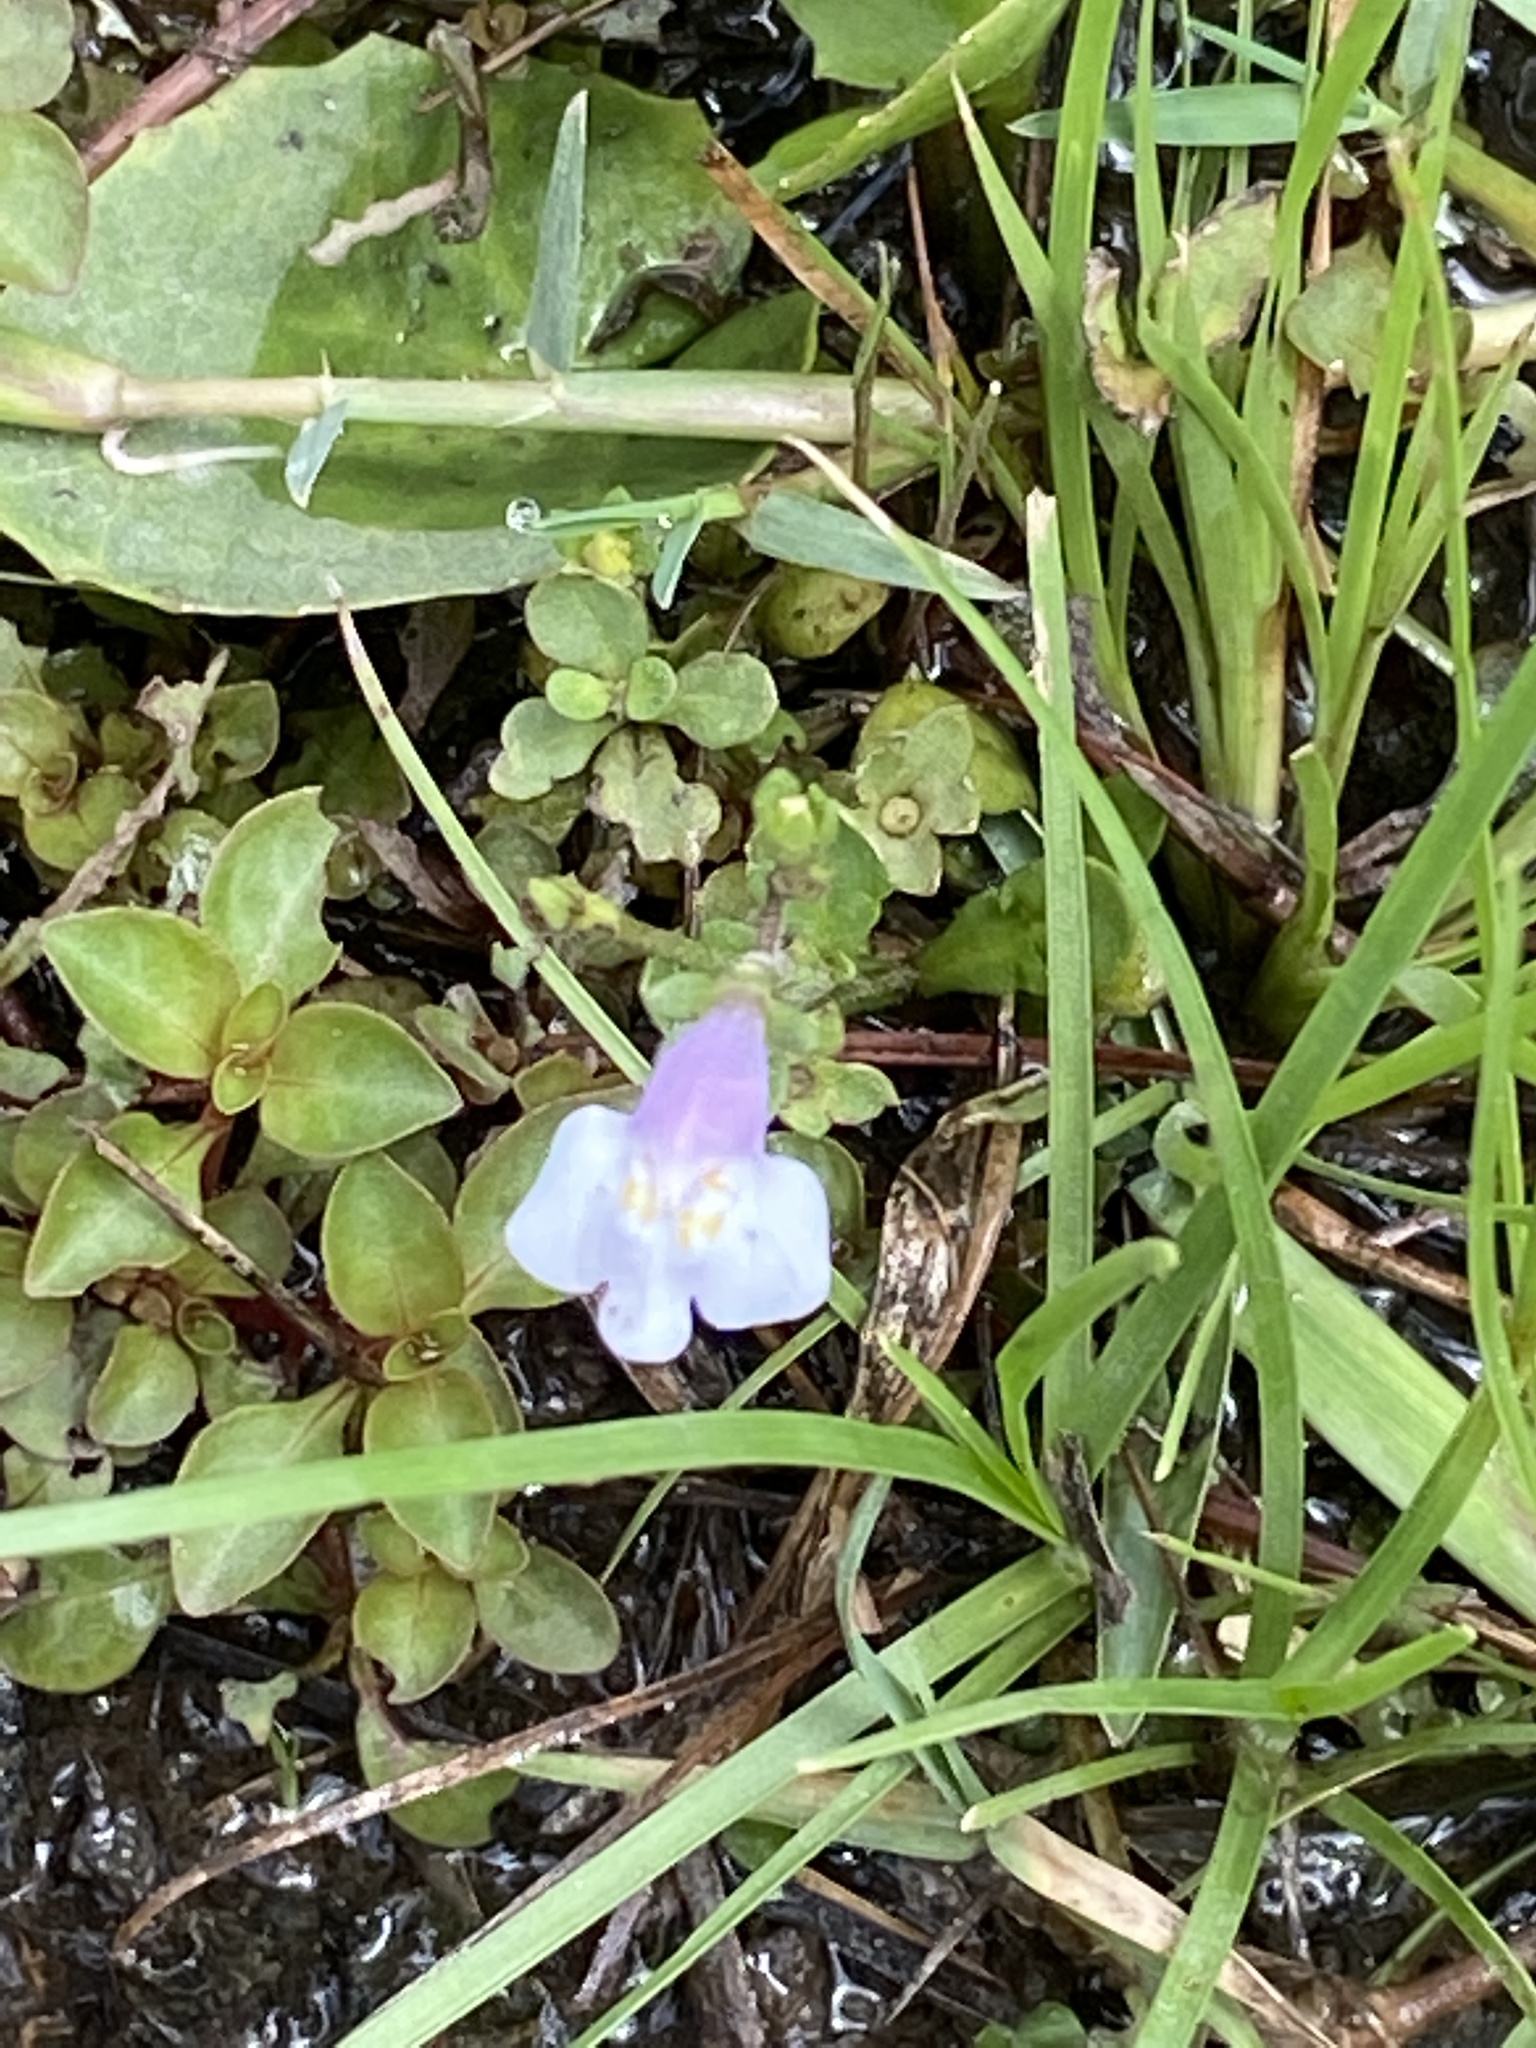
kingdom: Plantae
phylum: Tracheophyta
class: Magnoliopsida
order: Lamiales
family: Mazaceae
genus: Mazus
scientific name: Mazus pumilus
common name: Japanese mazus
